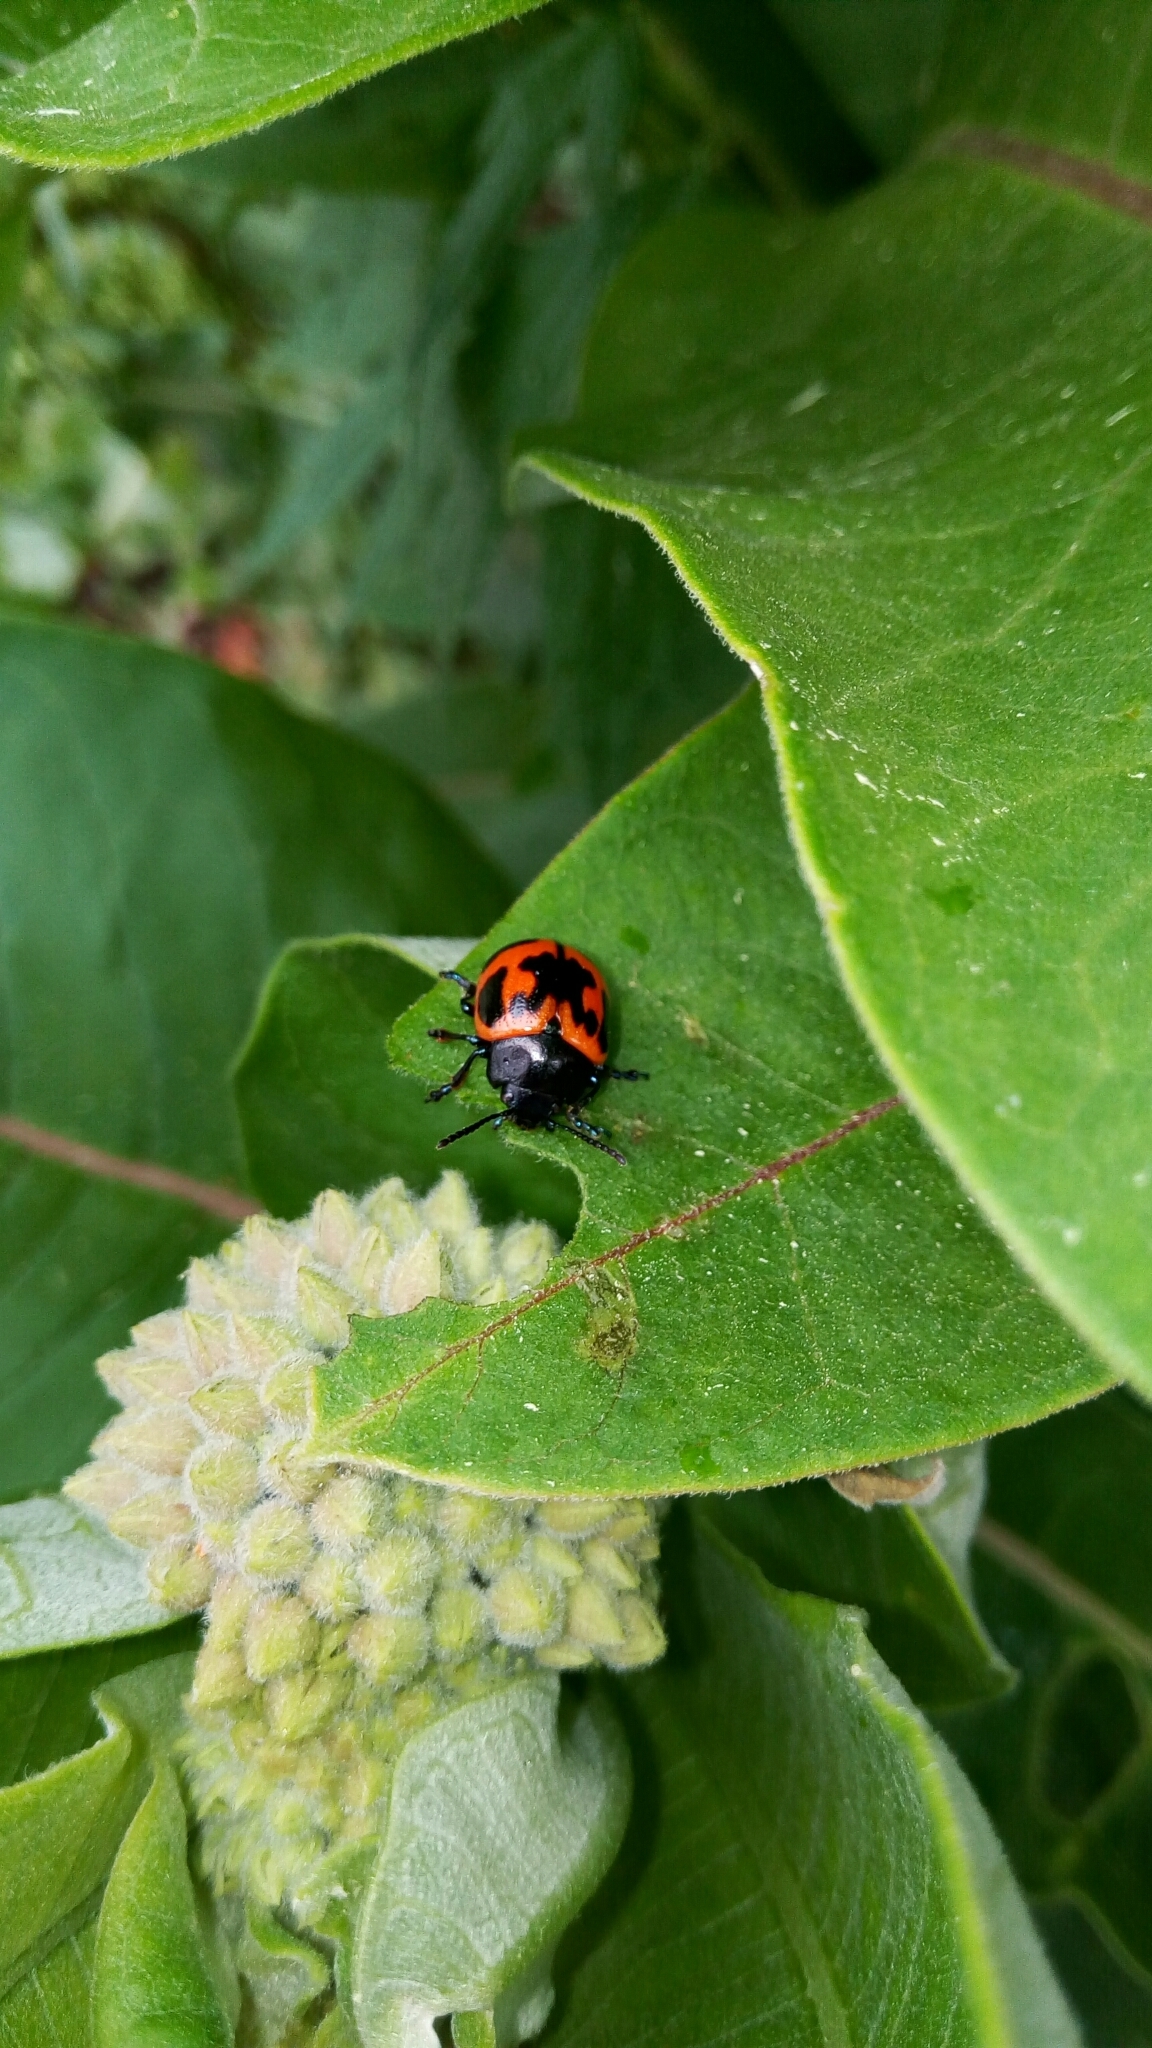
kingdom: Animalia
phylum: Arthropoda
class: Insecta
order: Coleoptera
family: Chrysomelidae
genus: Labidomera
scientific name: Labidomera clivicollis
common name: Swamp milkweed leaf beetle
